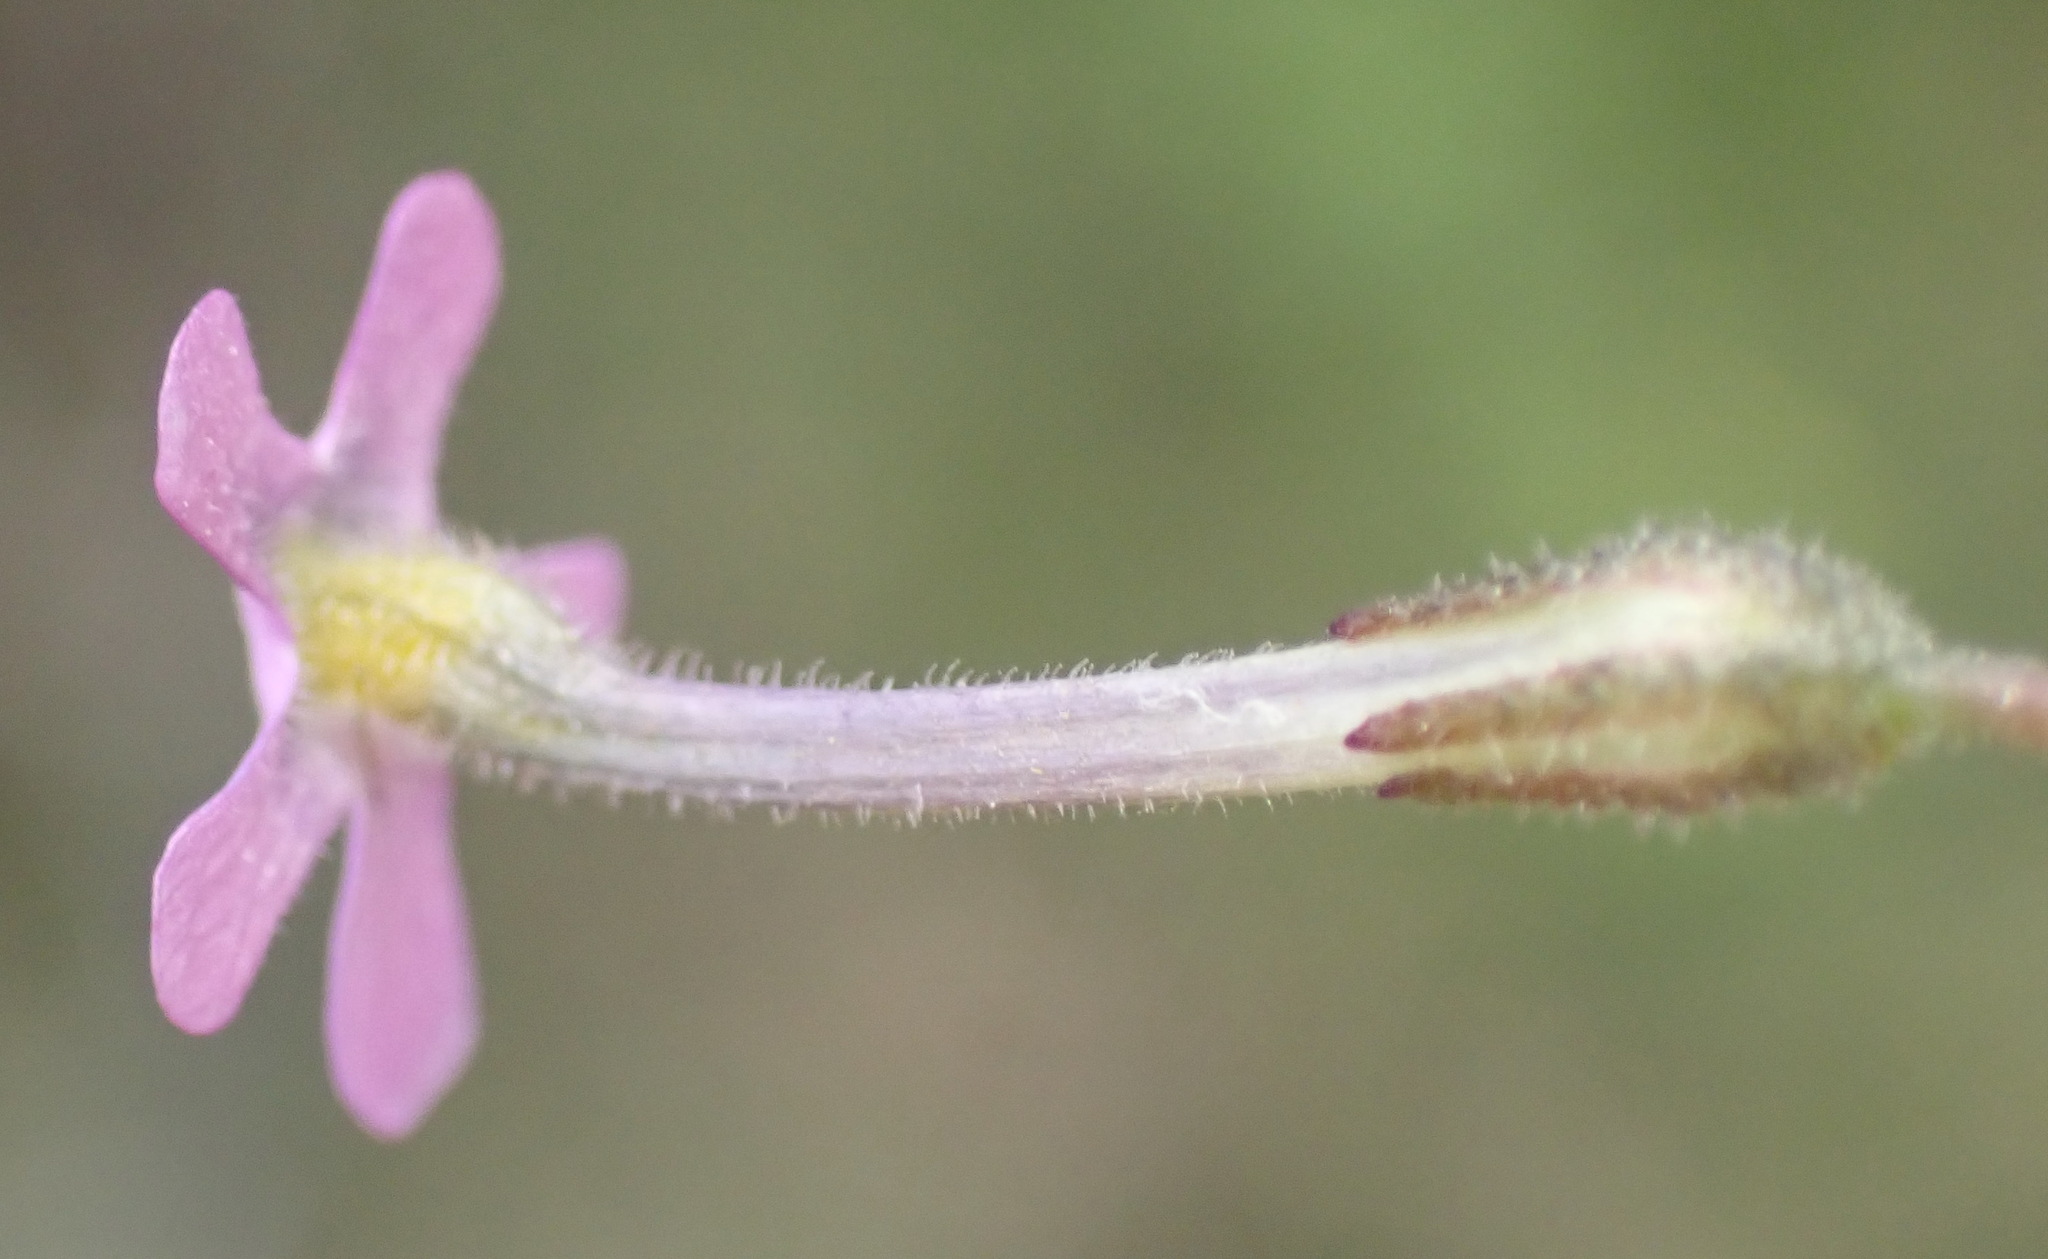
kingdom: Plantae
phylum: Tracheophyta
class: Magnoliopsida
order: Lamiales
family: Scrophulariaceae
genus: Lyperia
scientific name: Lyperia violacea
